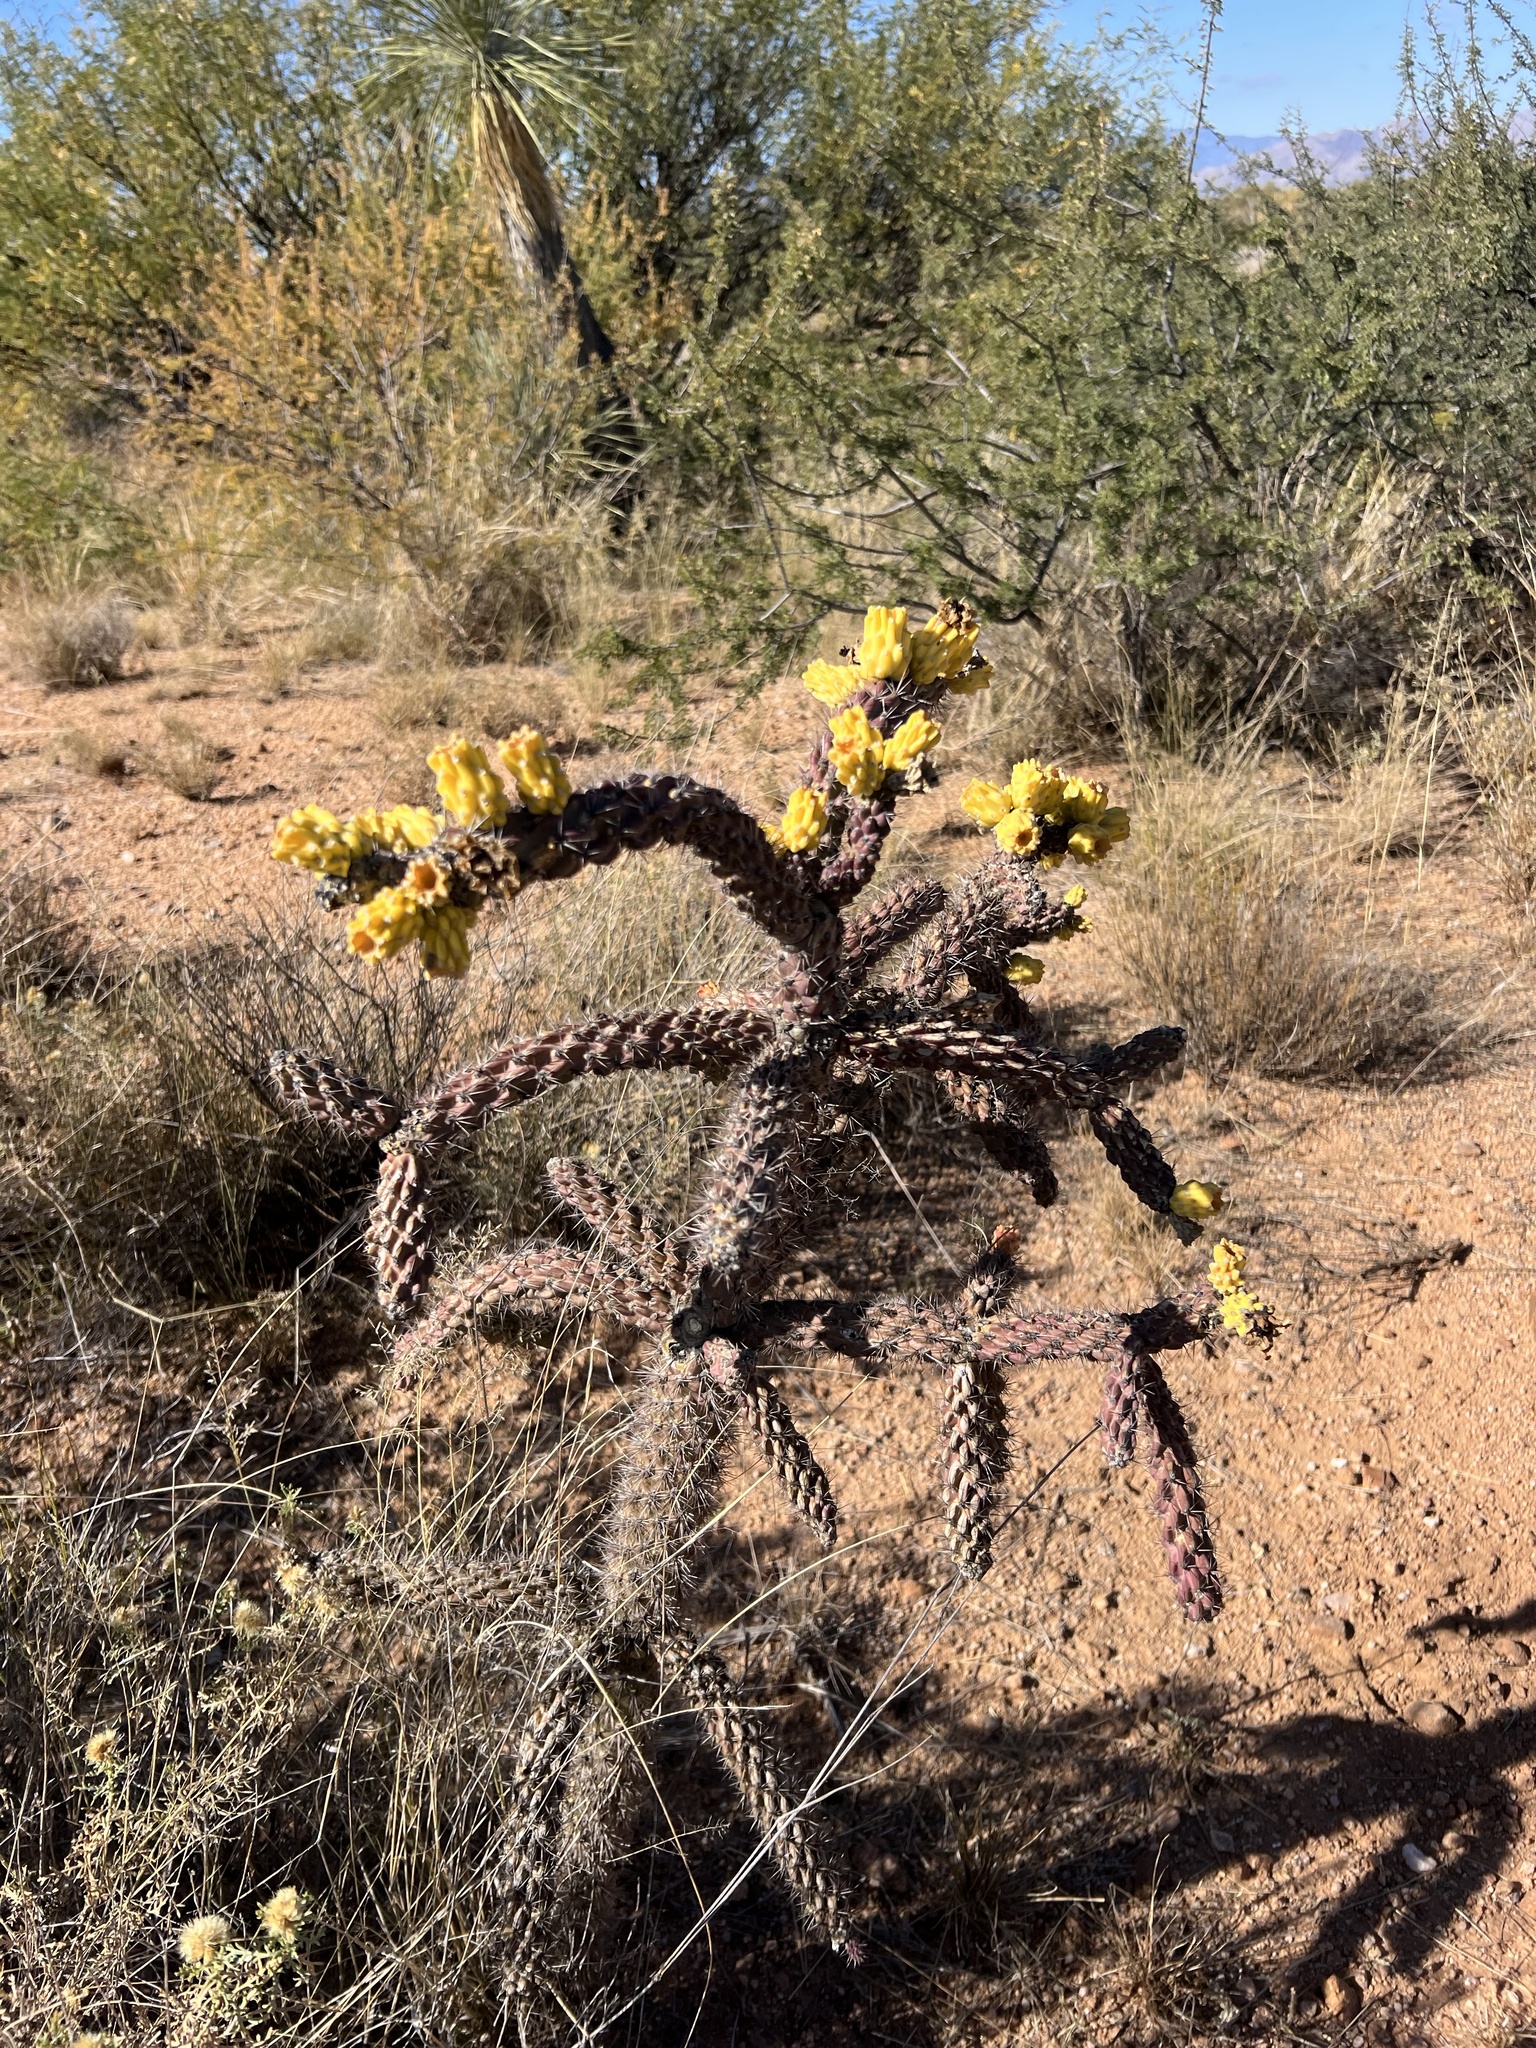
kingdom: Plantae
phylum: Tracheophyta
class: Magnoliopsida
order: Caryophyllales
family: Cactaceae
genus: Cylindropuntia
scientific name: Cylindropuntia imbricata
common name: Candelabrum cactus
